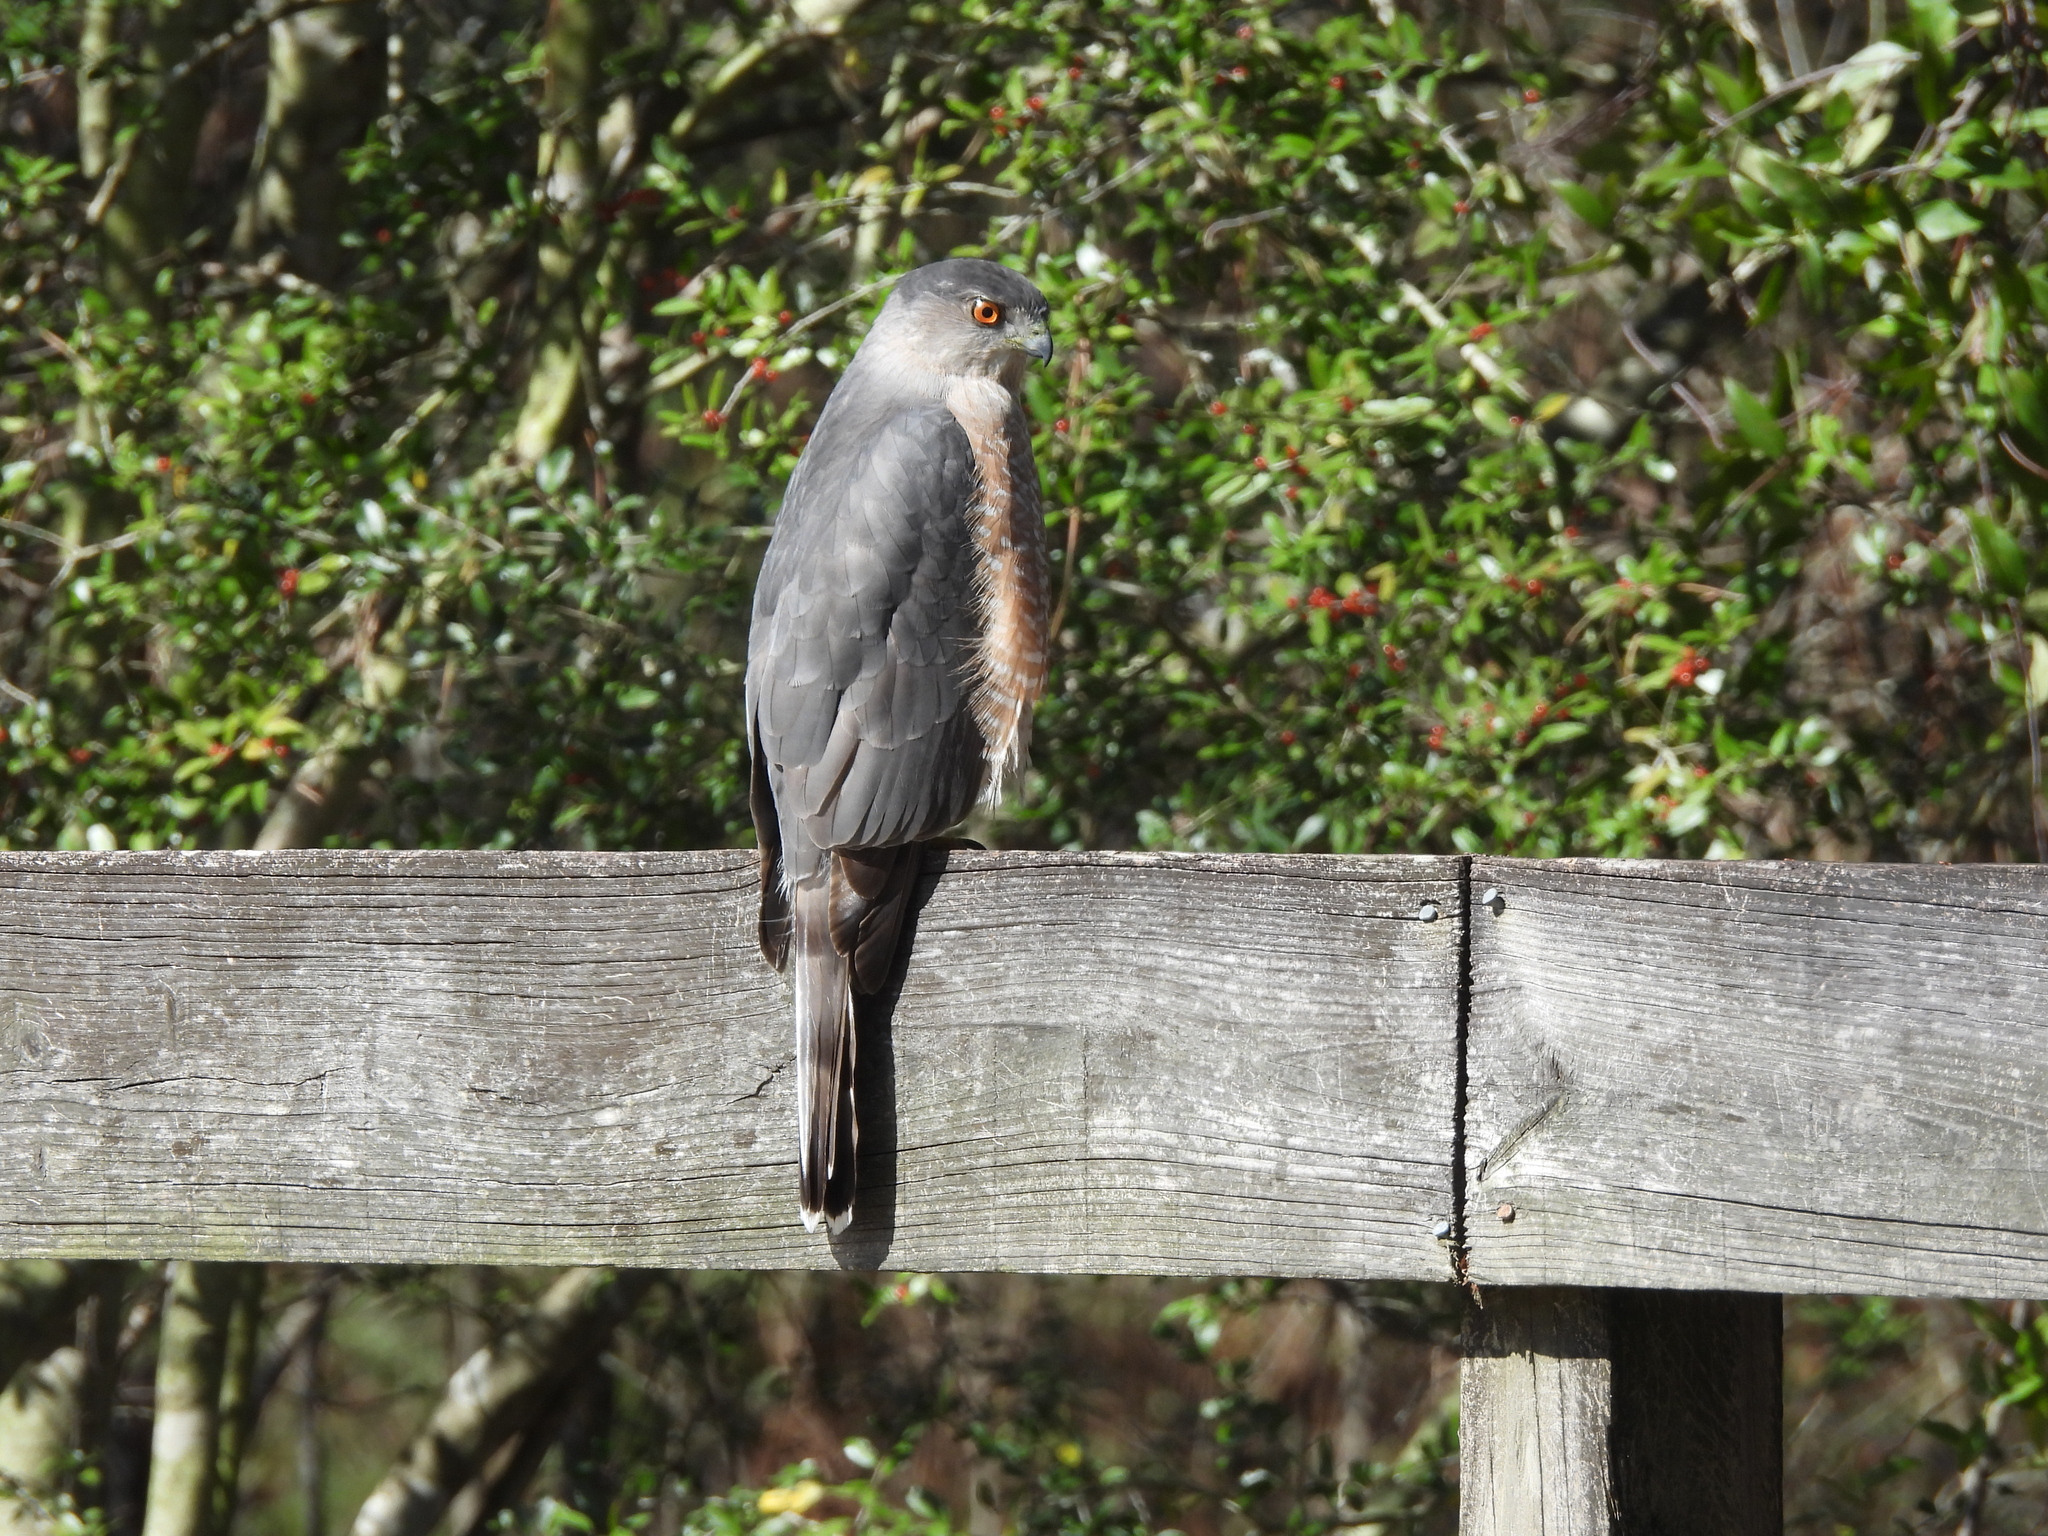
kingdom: Animalia
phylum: Chordata
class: Aves
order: Accipitriformes
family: Accipitridae
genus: Accipiter
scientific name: Accipiter cooperii
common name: Cooper's hawk
